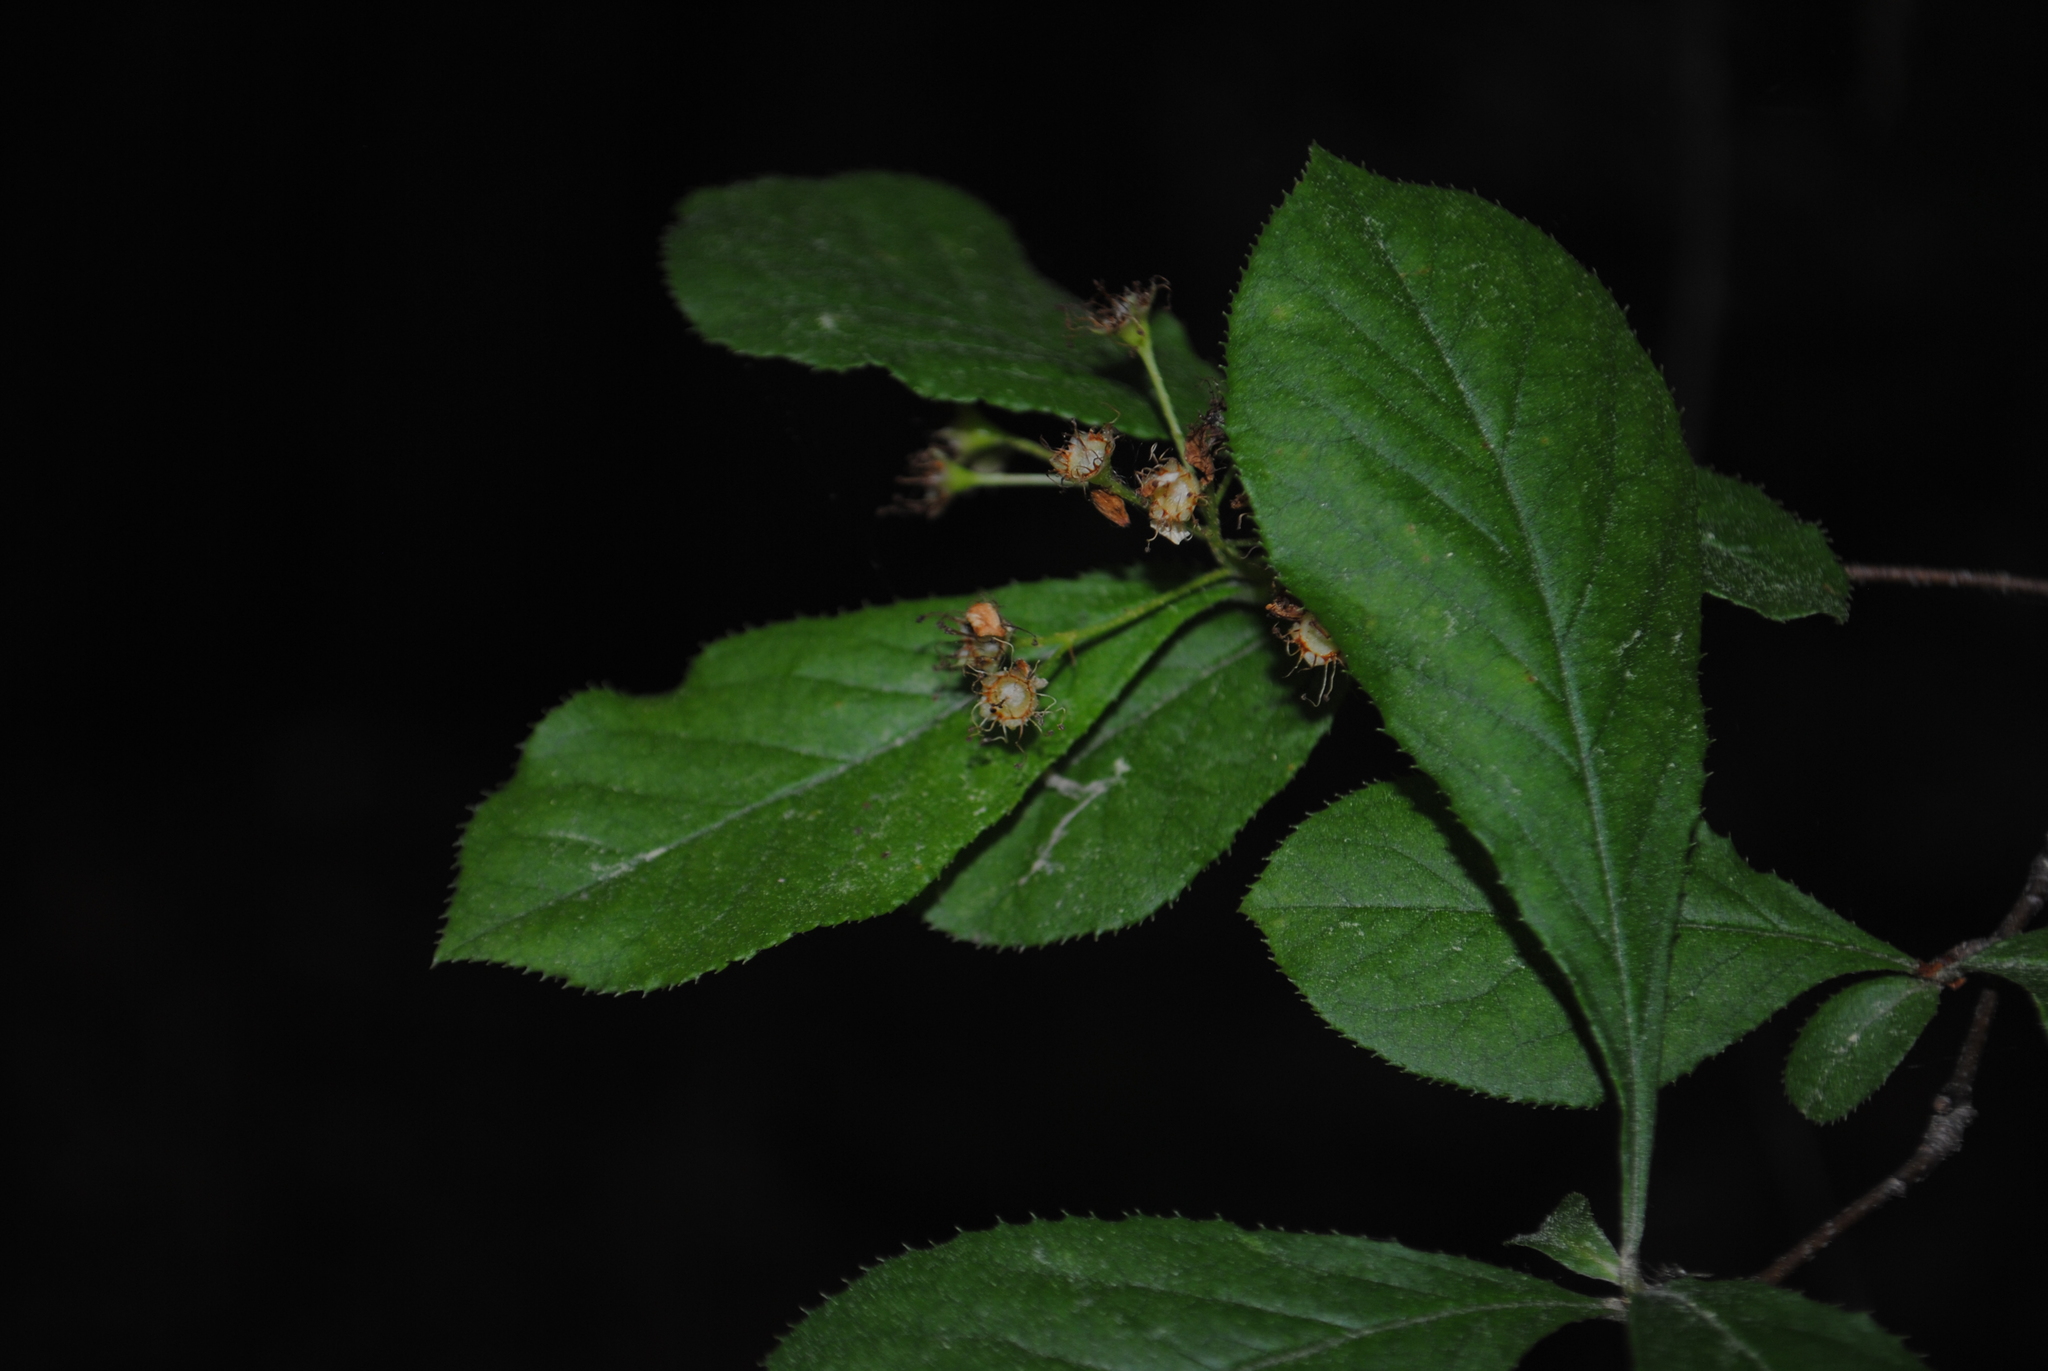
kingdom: Plantae
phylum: Tracheophyta
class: Magnoliopsida
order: Rosales
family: Rosaceae
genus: Pourthiaea
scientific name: Pourthiaea villosa
